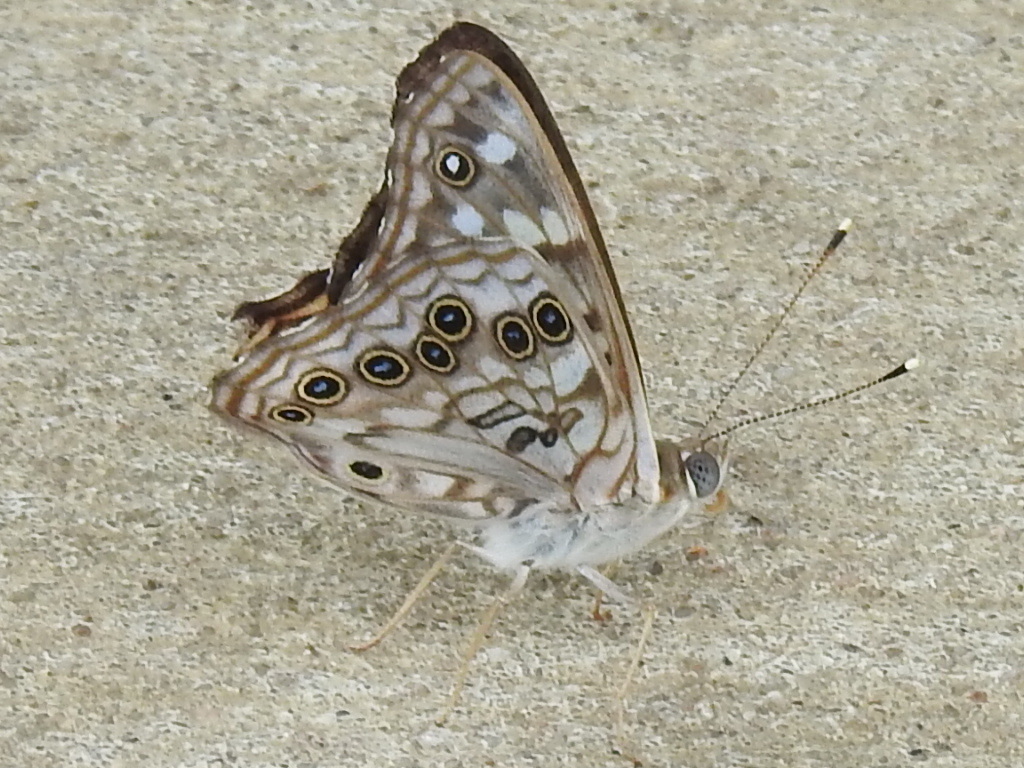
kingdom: Animalia
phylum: Arthropoda
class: Insecta
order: Lepidoptera
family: Nymphalidae
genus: Asterocampa
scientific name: Asterocampa celtis
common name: Hackberry emperor
